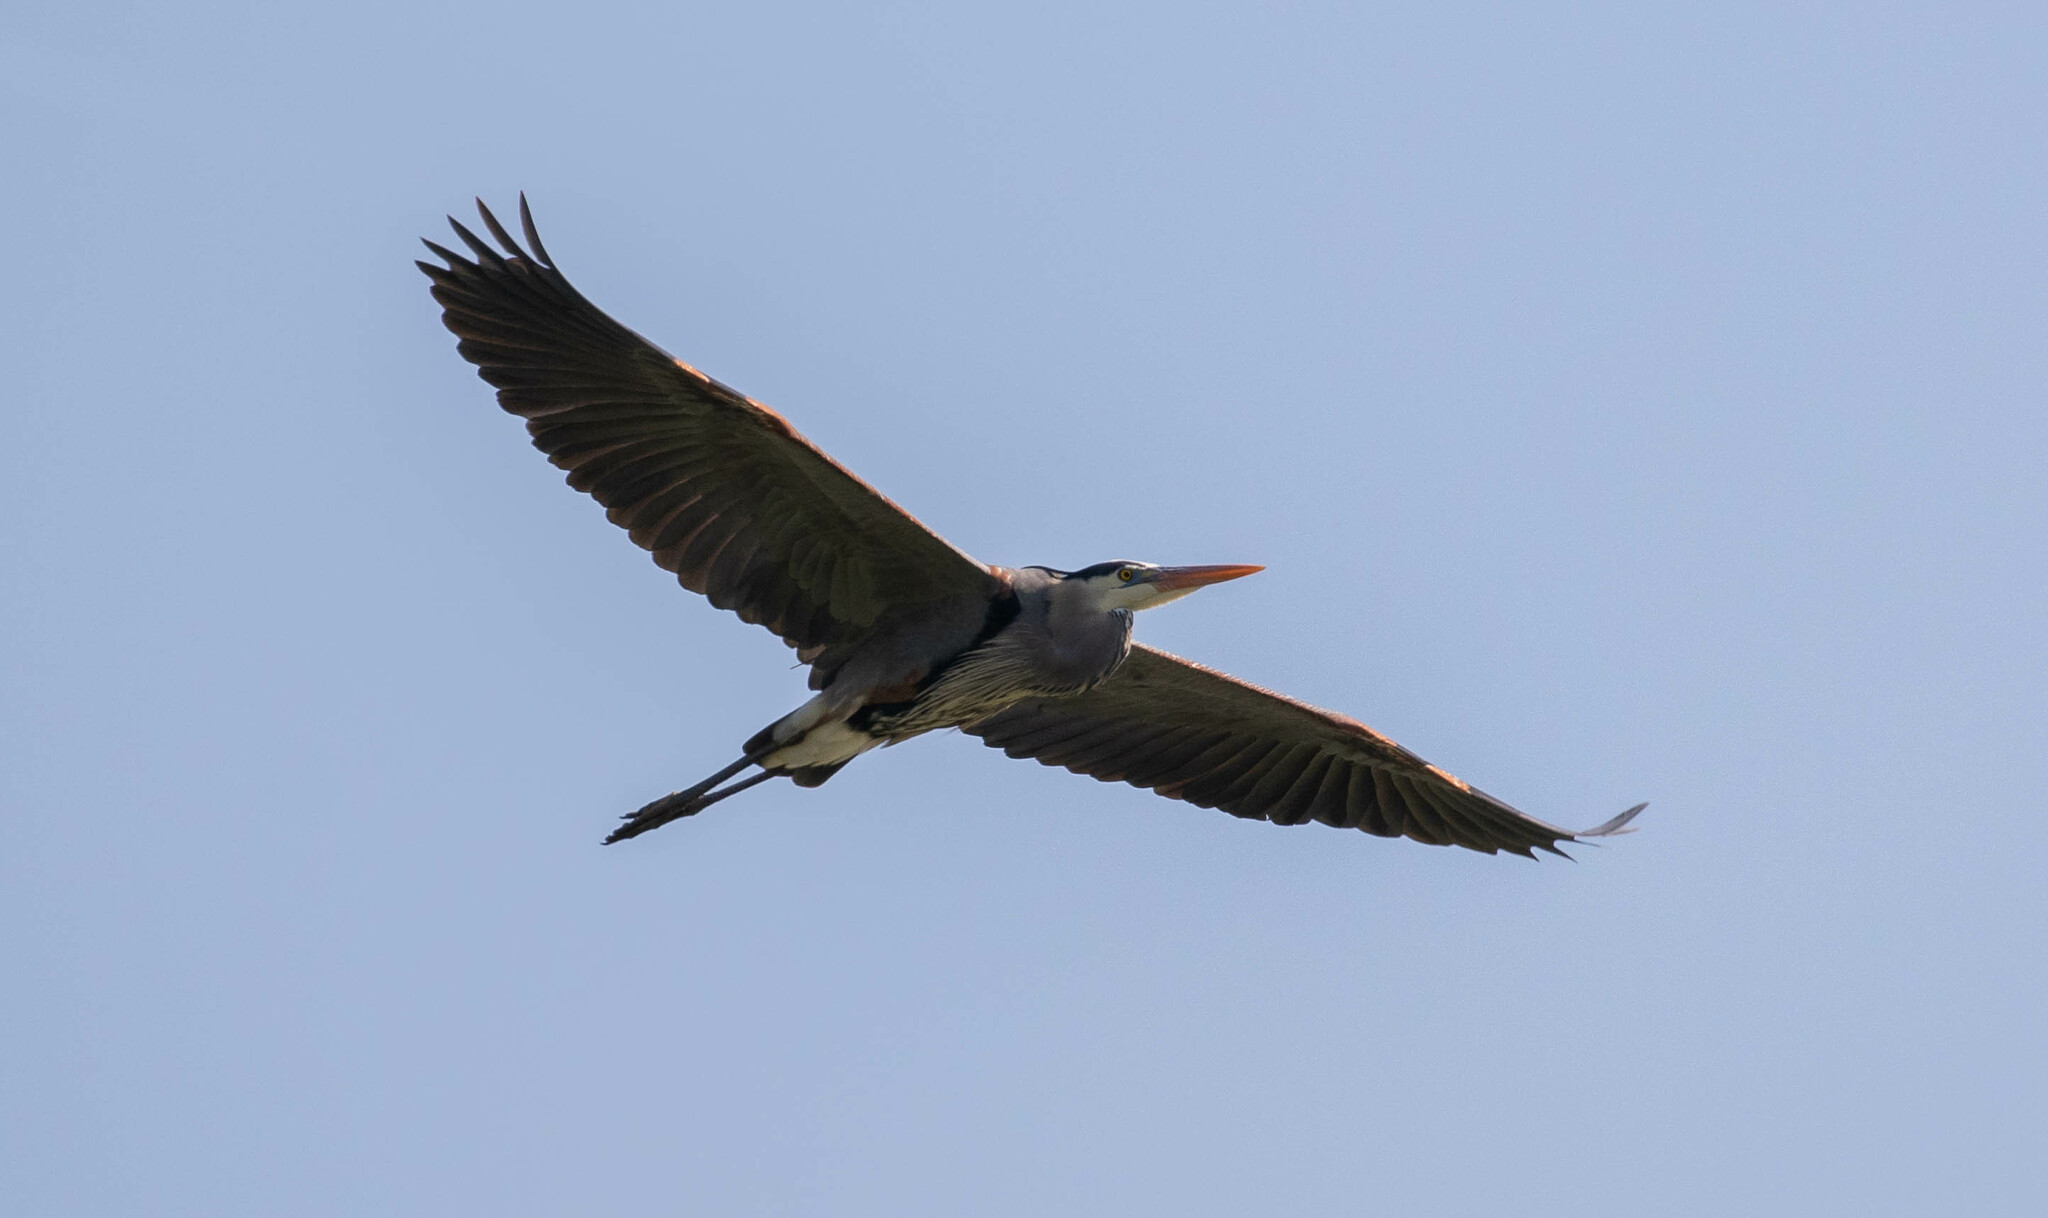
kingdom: Animalia
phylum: Chordata
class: Aves
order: Pelecaniformes
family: Ardeidae
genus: Ardea
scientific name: Ardea herodias
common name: Great blue heron
